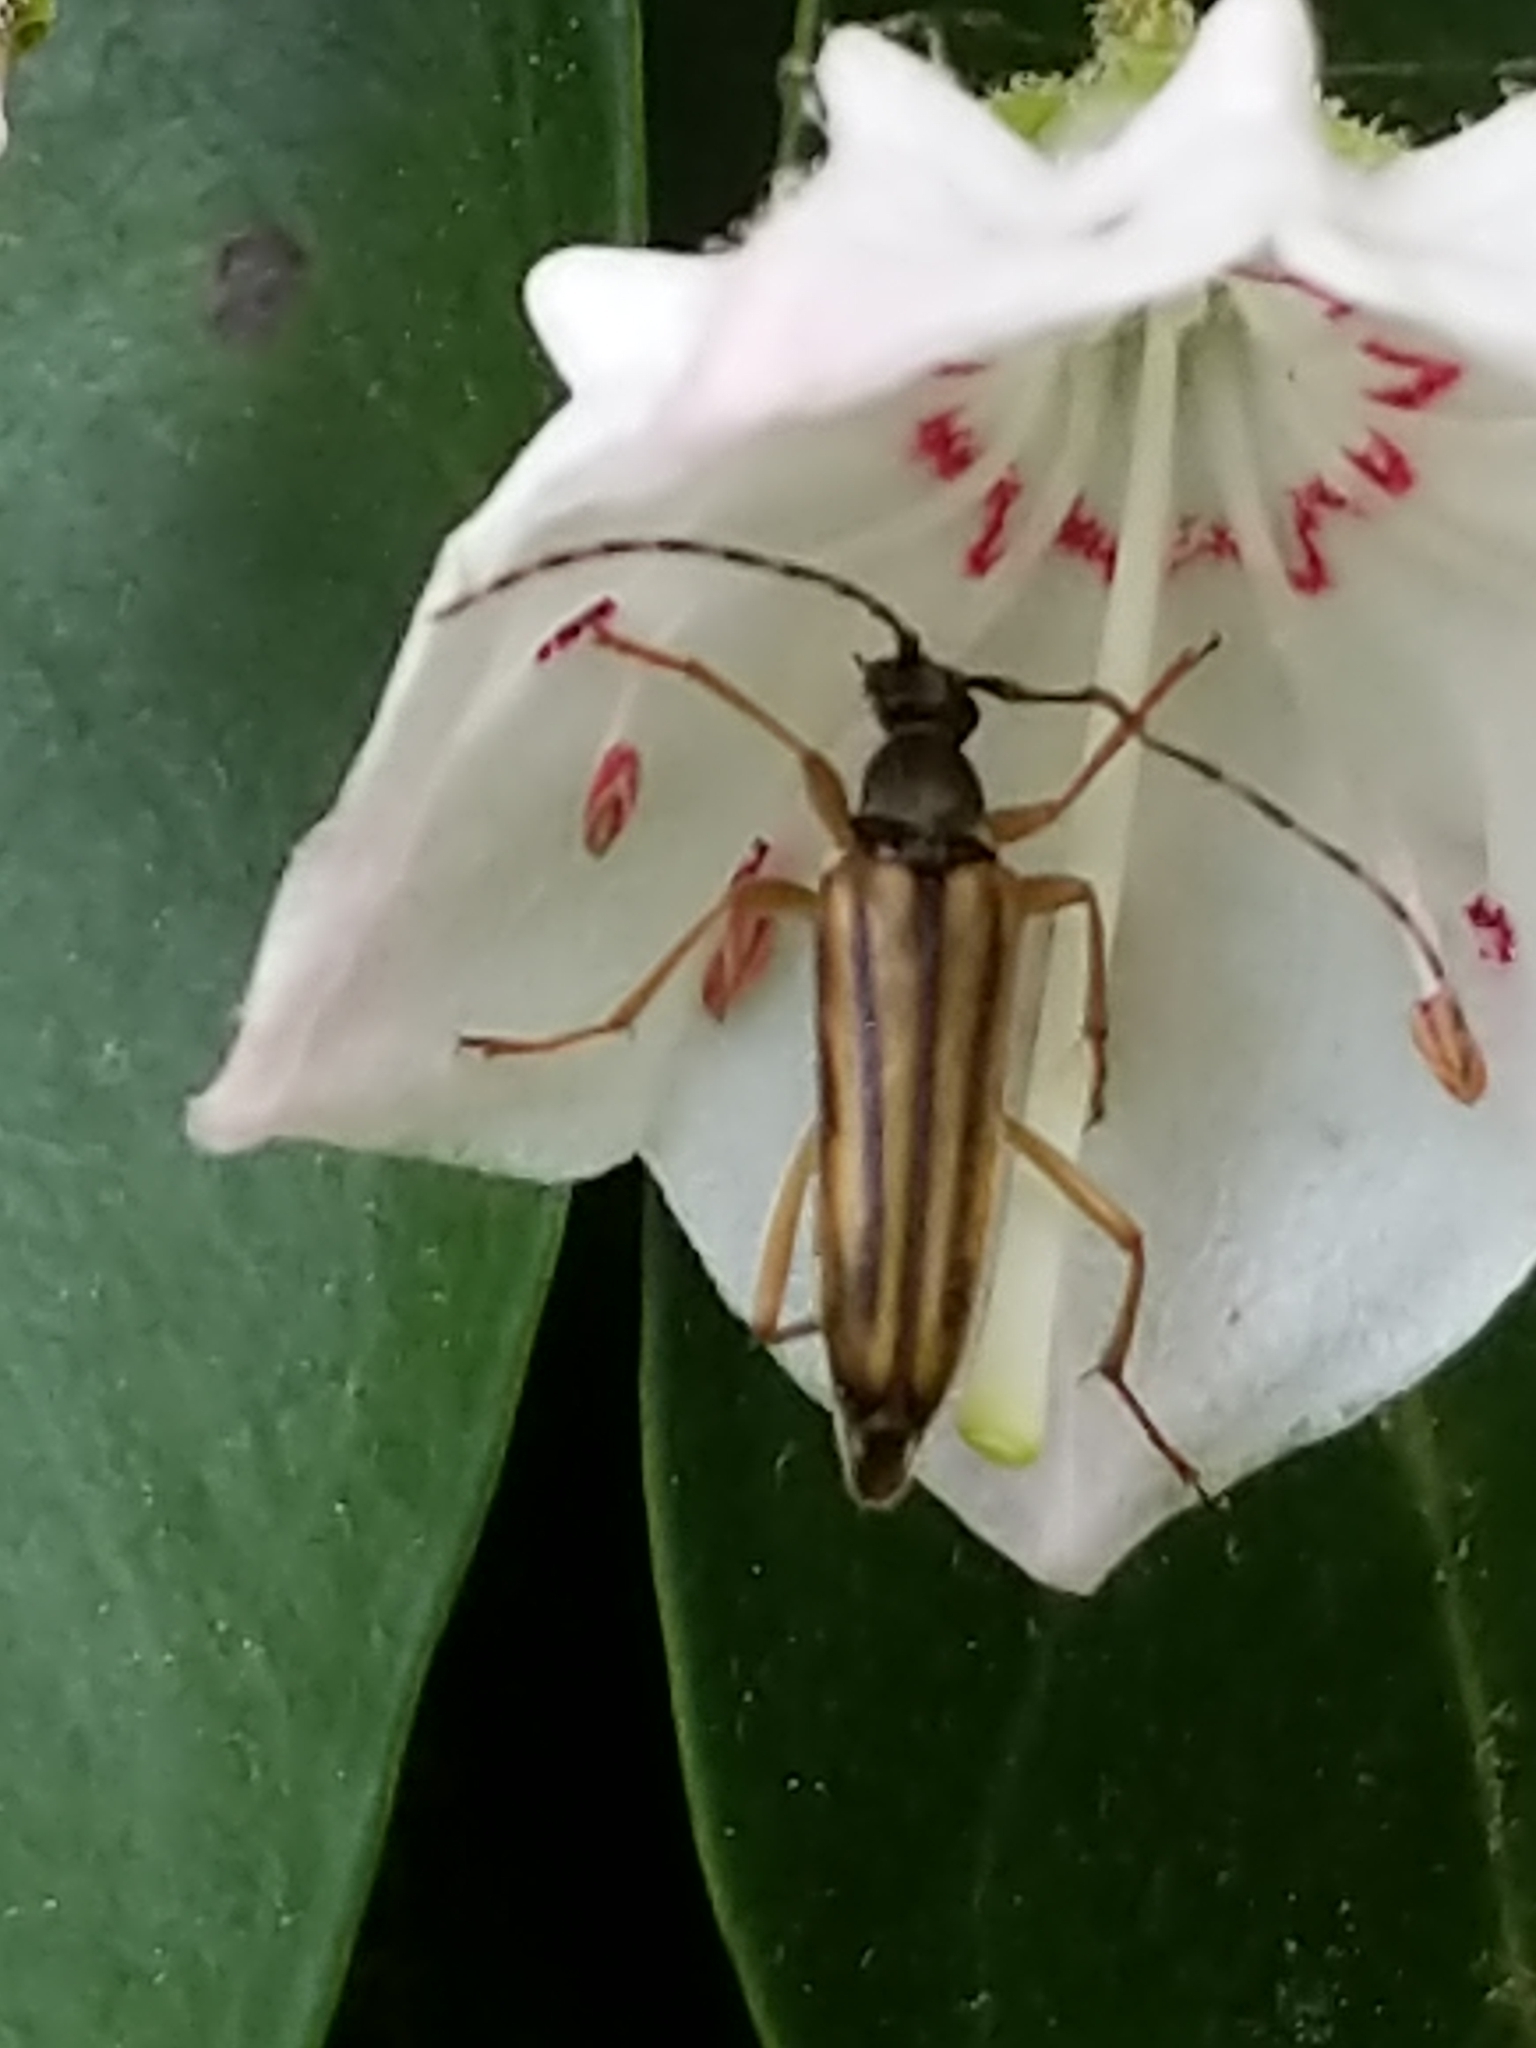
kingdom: Animalia
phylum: Arthropoda
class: Insecta
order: Coleoptera
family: Cerambycidae
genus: Analeptura
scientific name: Analeptura lineola
